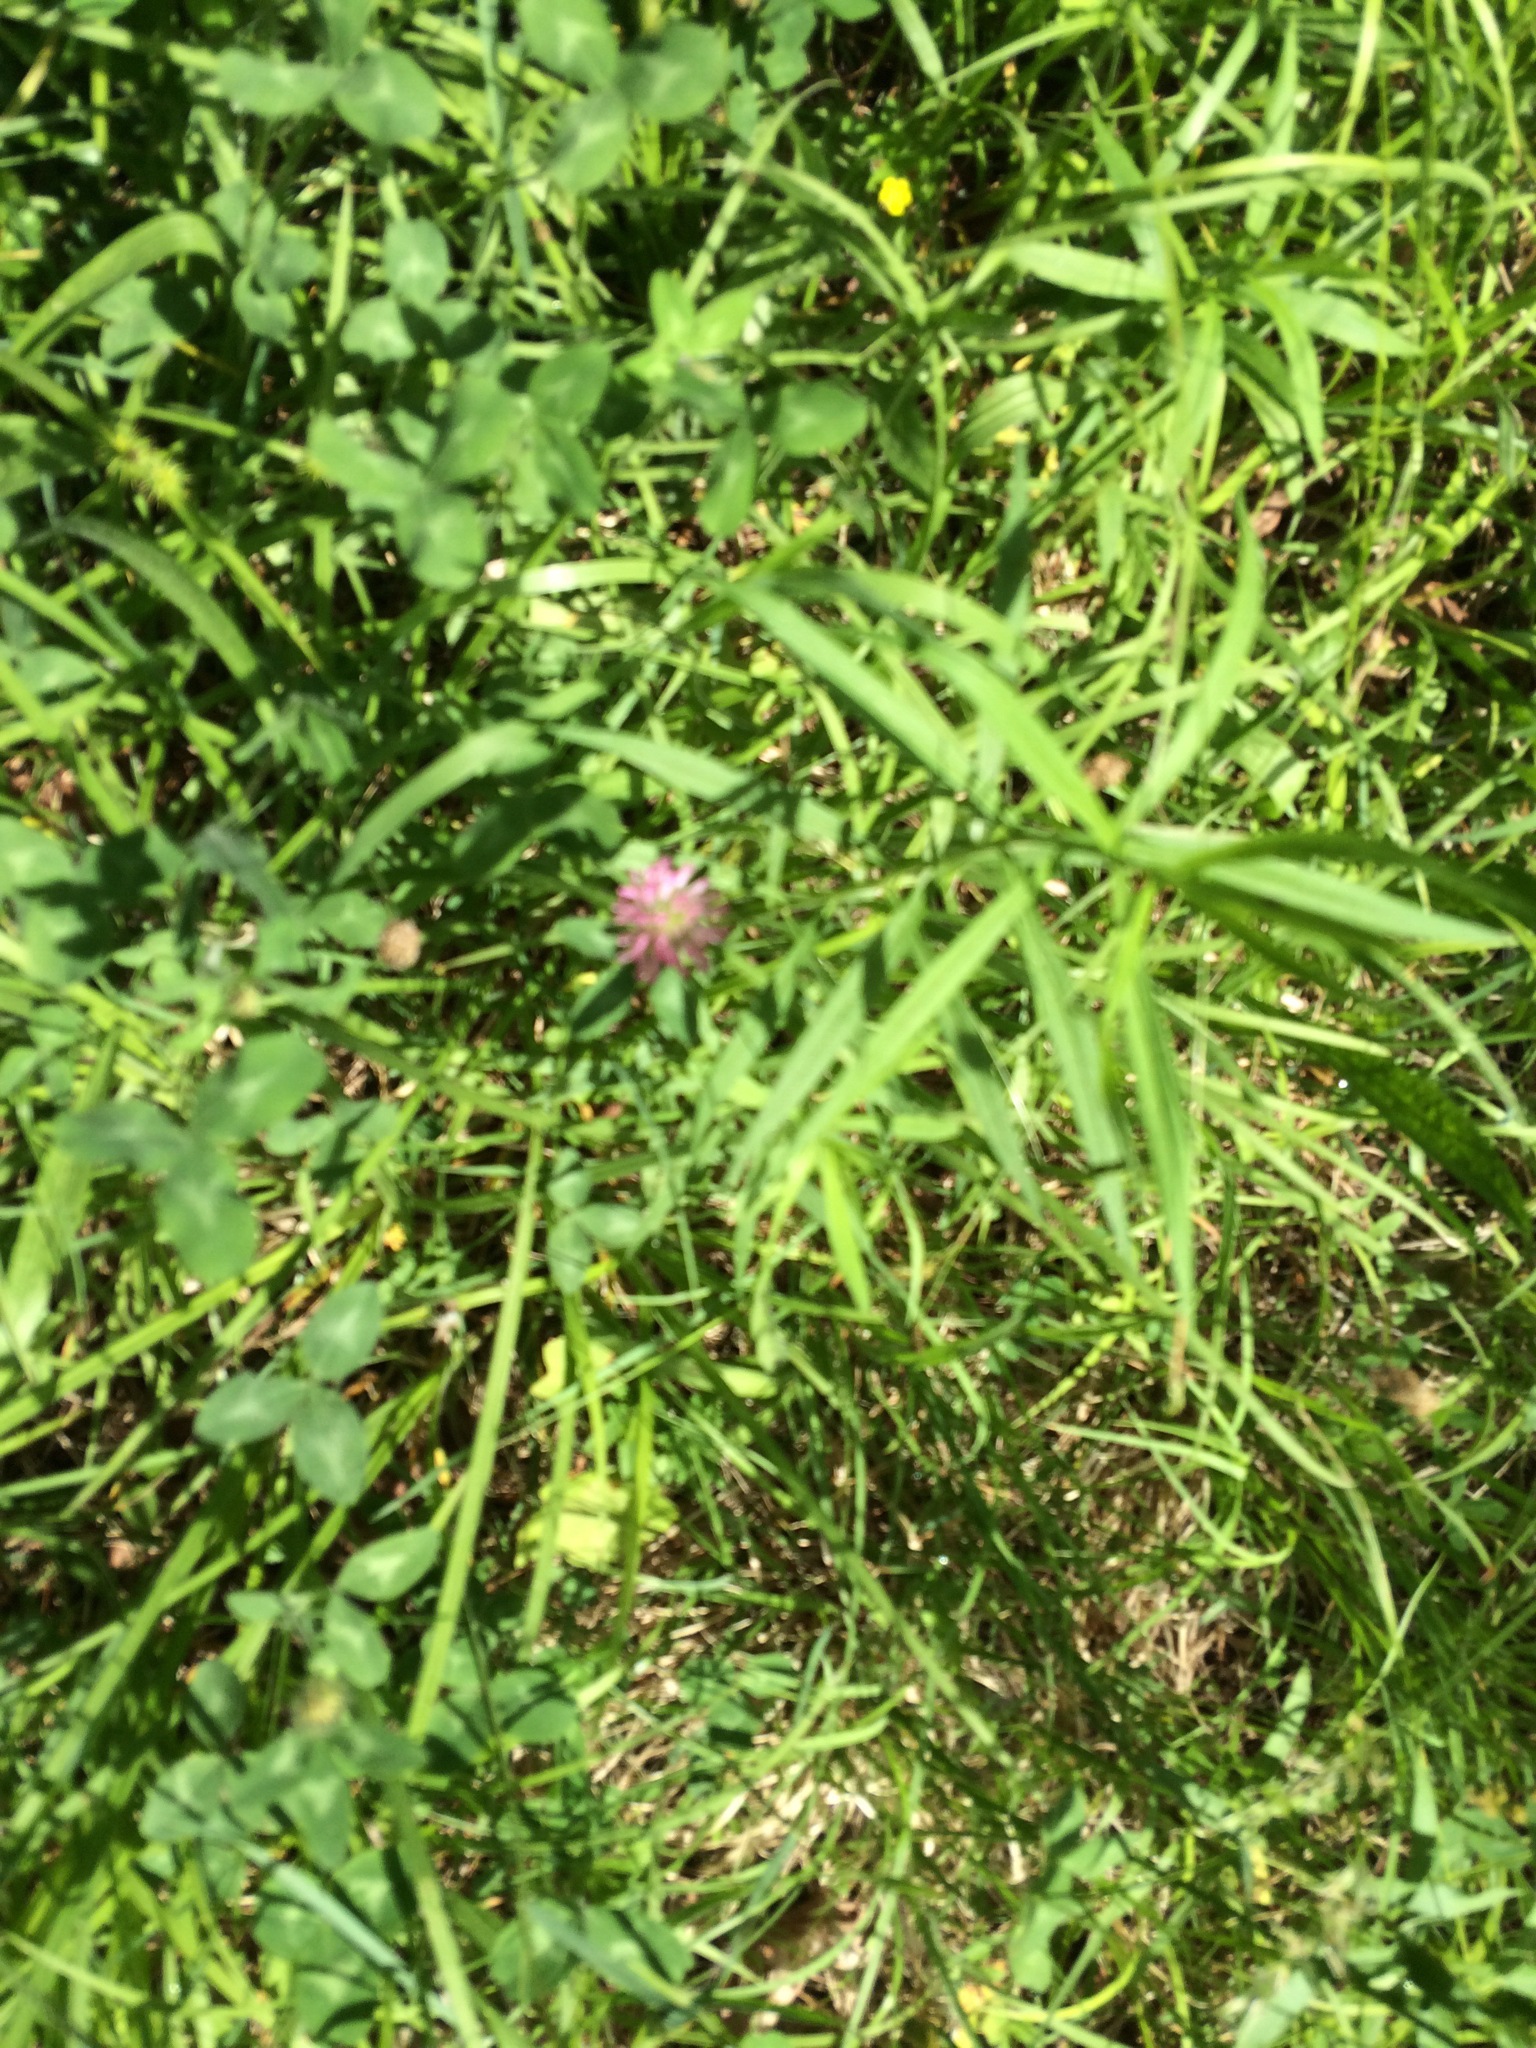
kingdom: Plantae
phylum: Tracheophyta
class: Magnoliopsida
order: Fabales
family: Fabaceae
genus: Trifolium
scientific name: Trifolium pratense
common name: Red clover
